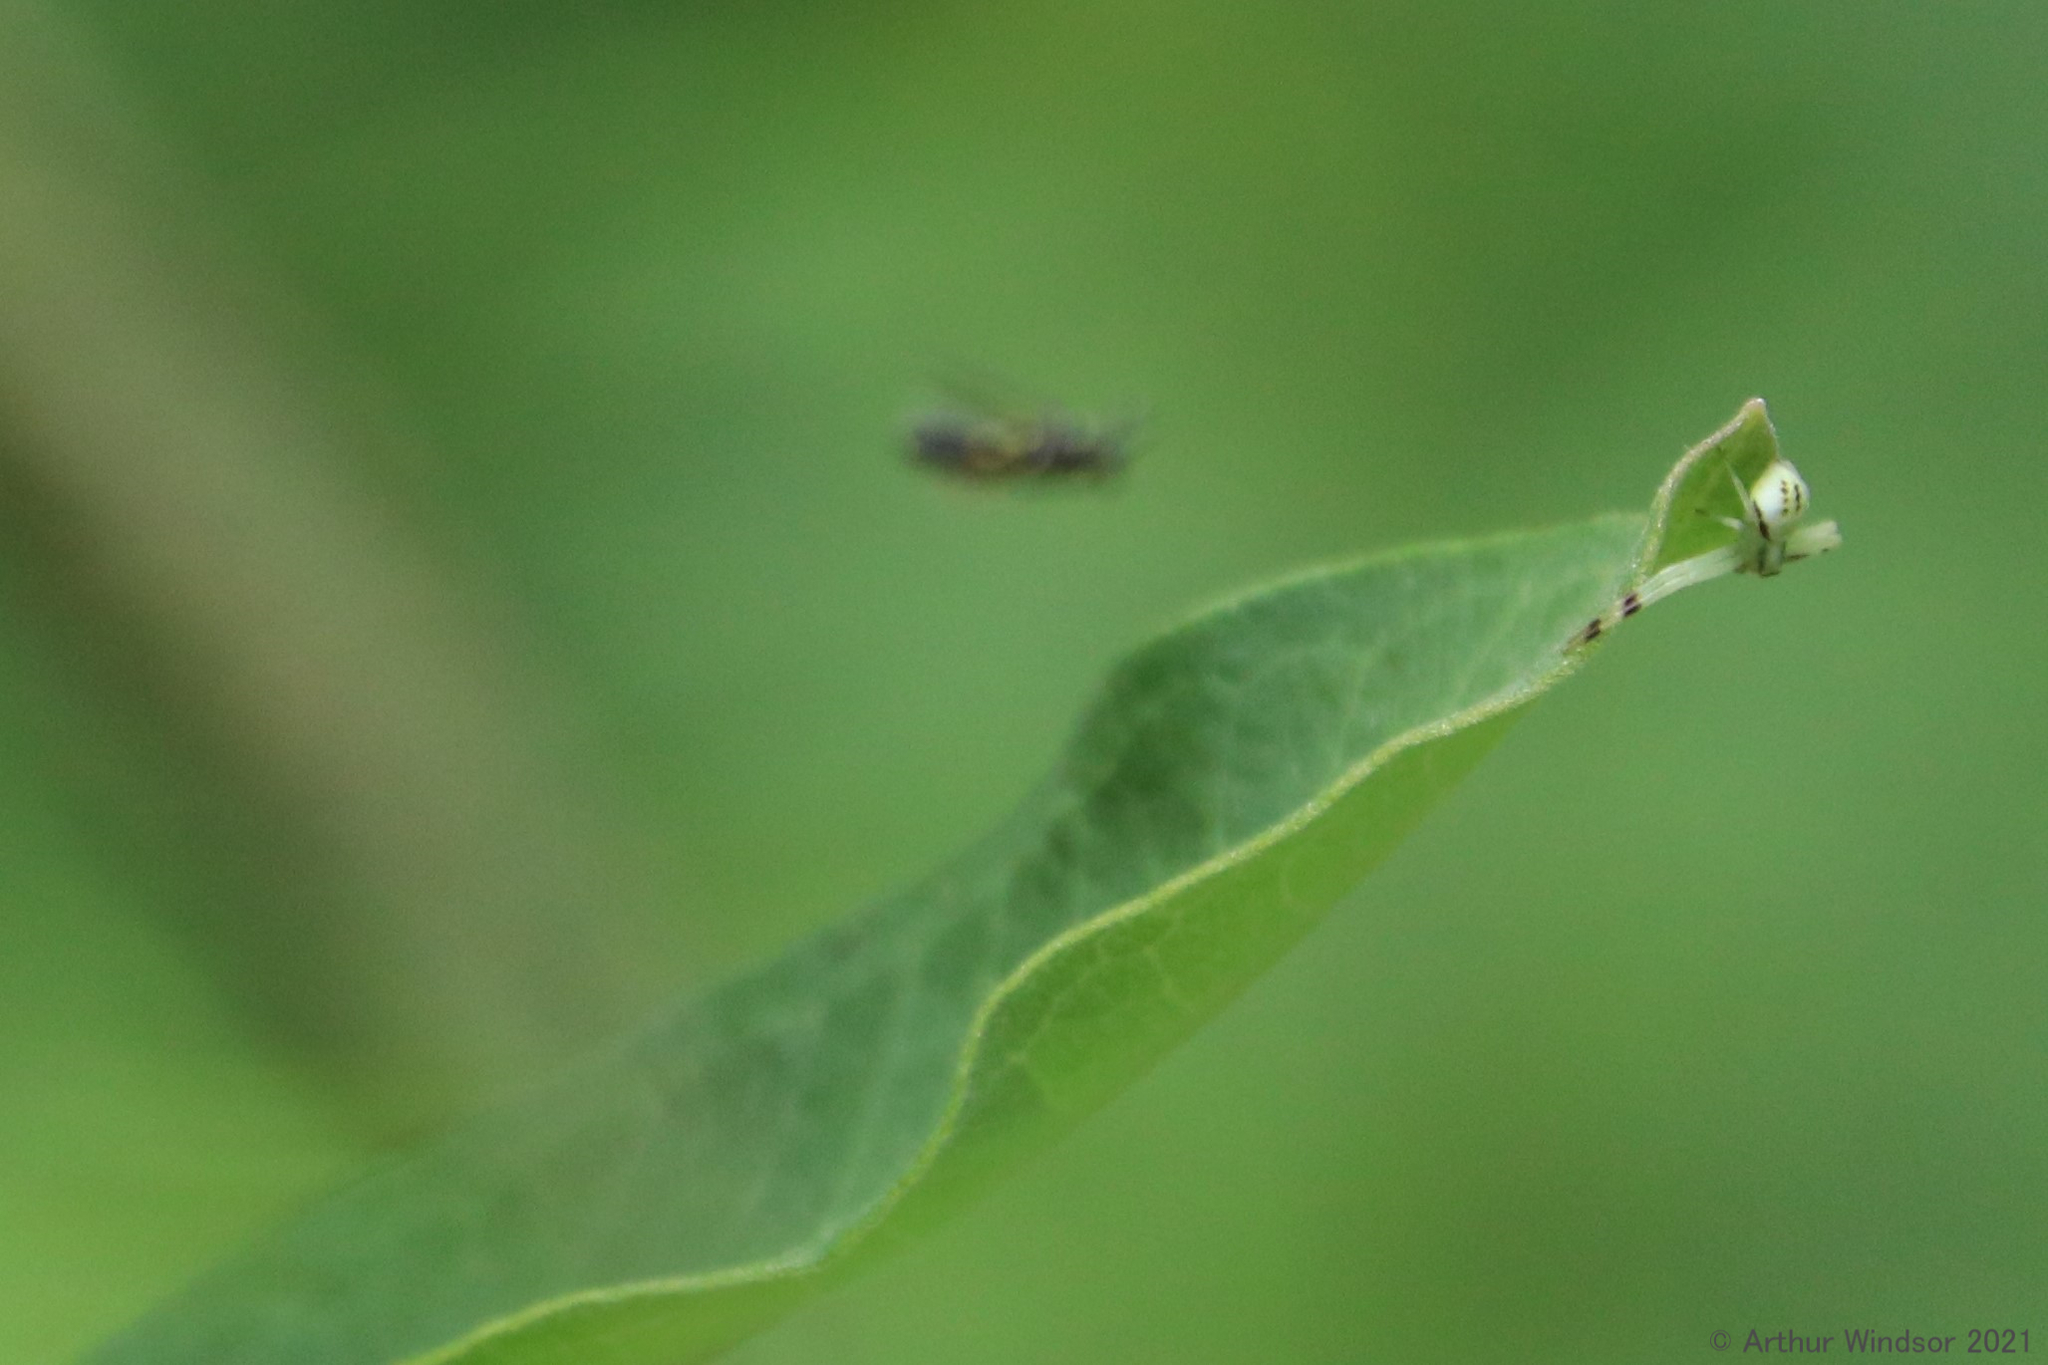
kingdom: Animalia
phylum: Arthropoda
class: Arachnida
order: Araneae
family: Thomisidae
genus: Misumena
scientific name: Misumena vatia
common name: Goldenrod crab spider
